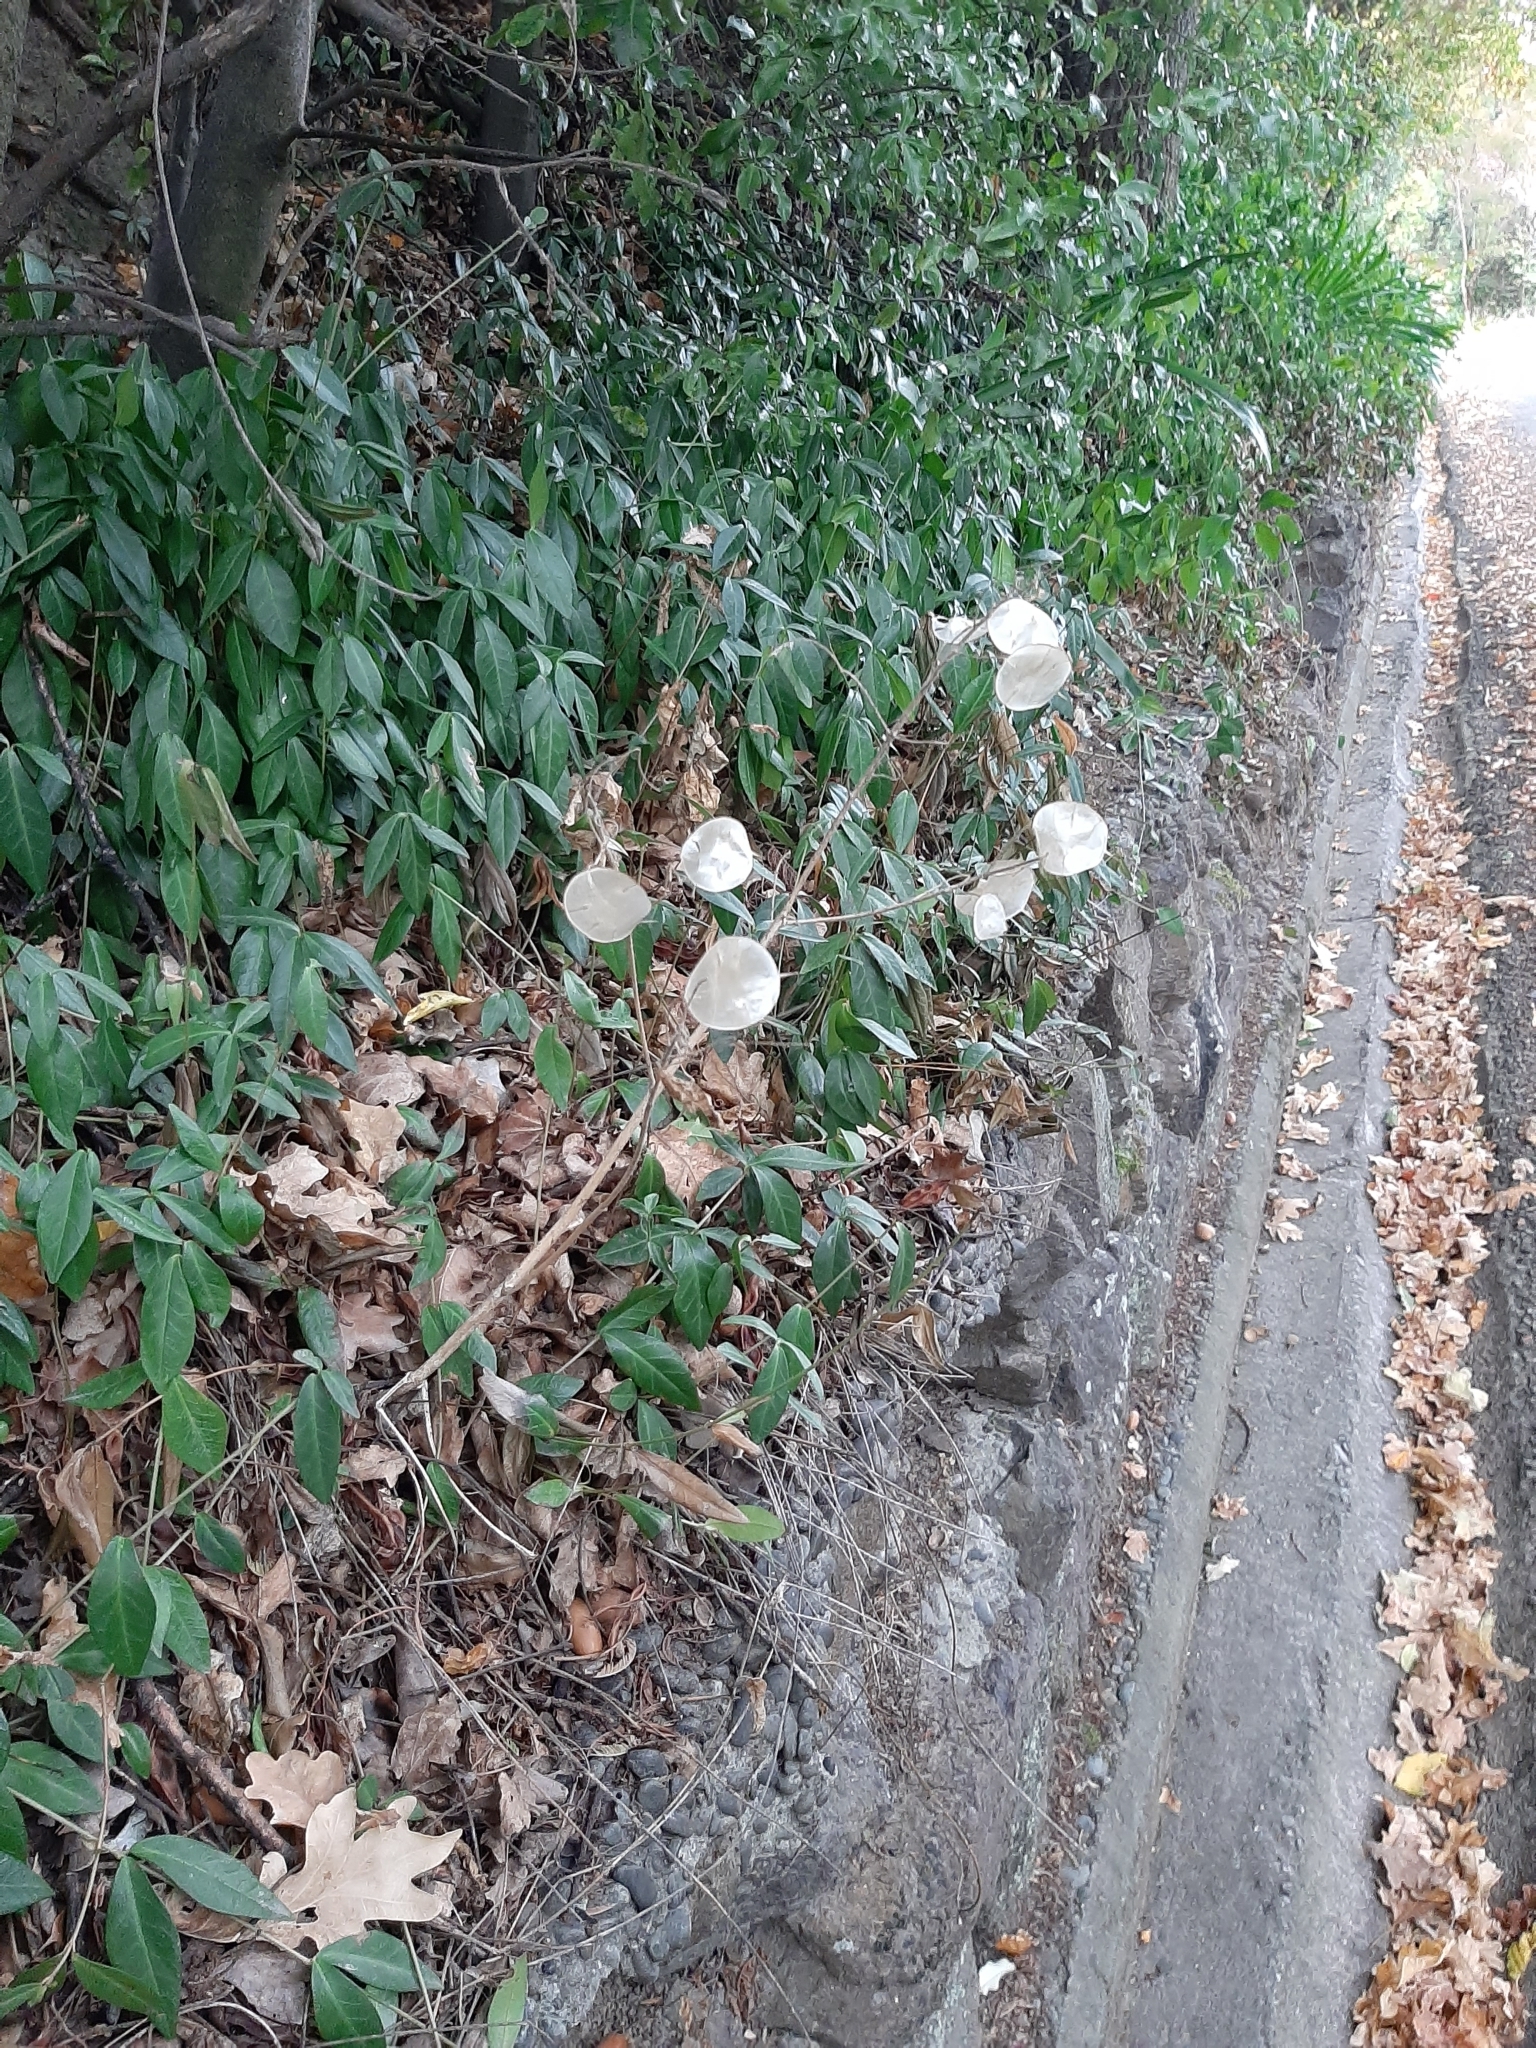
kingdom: Plantae
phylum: Tracheophyta
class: Magnoliopsida
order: Brassicales
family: Brassicaceae
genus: Lunaria
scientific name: Lunaria annua
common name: Honesty
